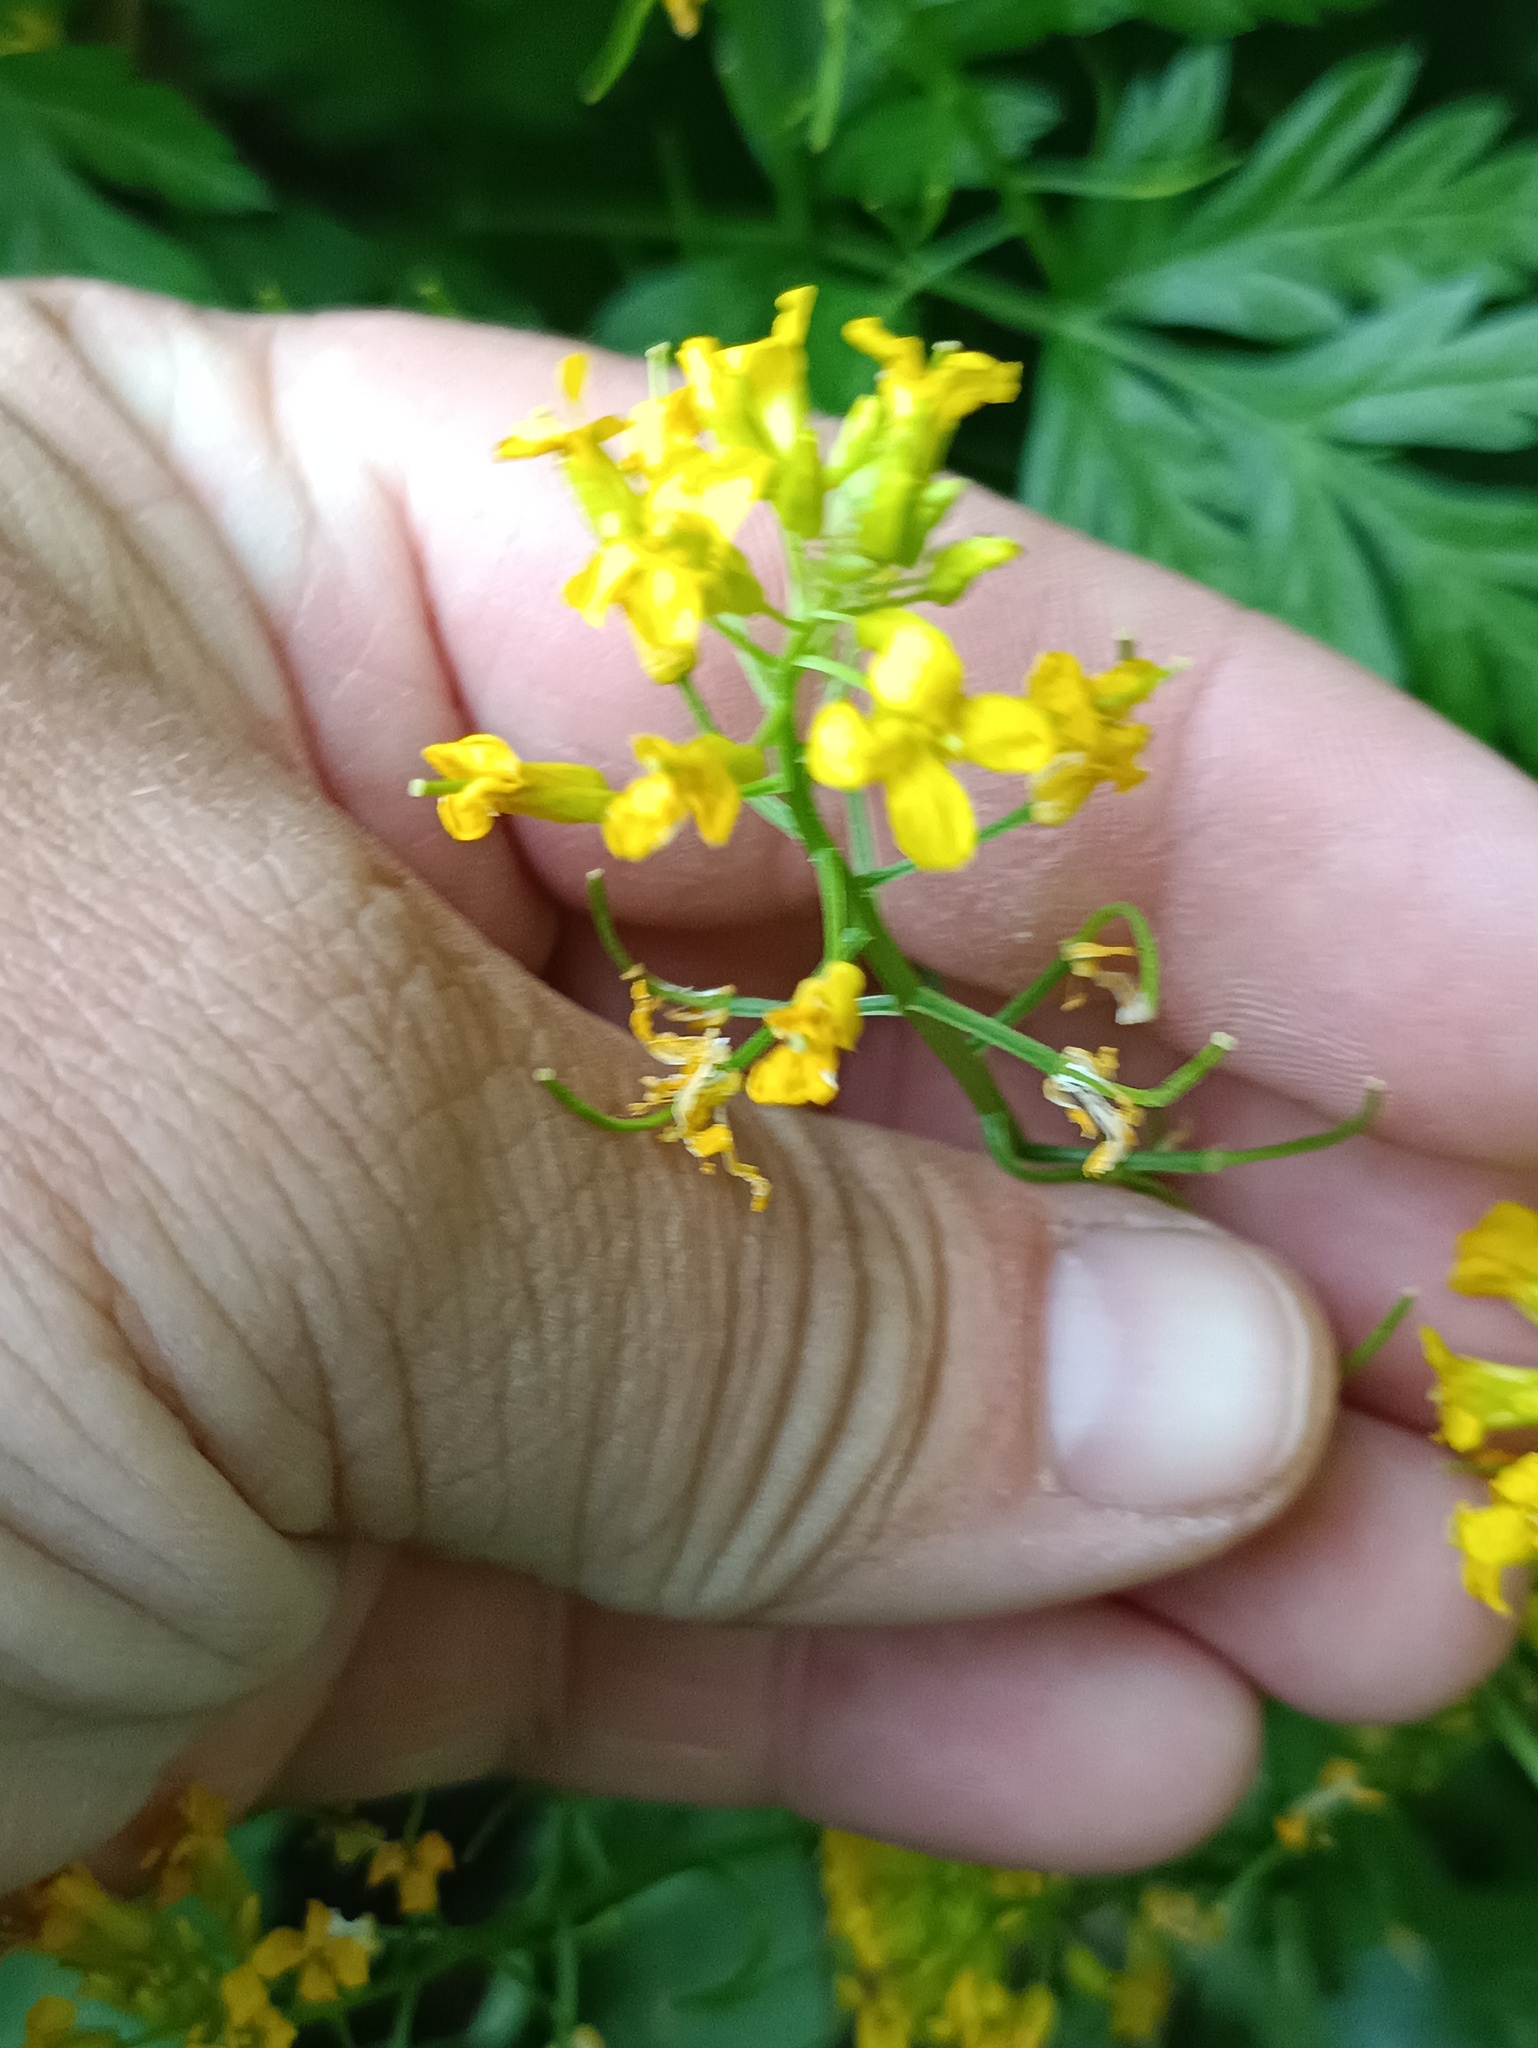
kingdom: Plantae
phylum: Tracheophyta
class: Magnoliopsida
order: Brassicales
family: Brassicaceae
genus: Barbarea
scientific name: Barbarea vulgaris
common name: Cressy-greens
